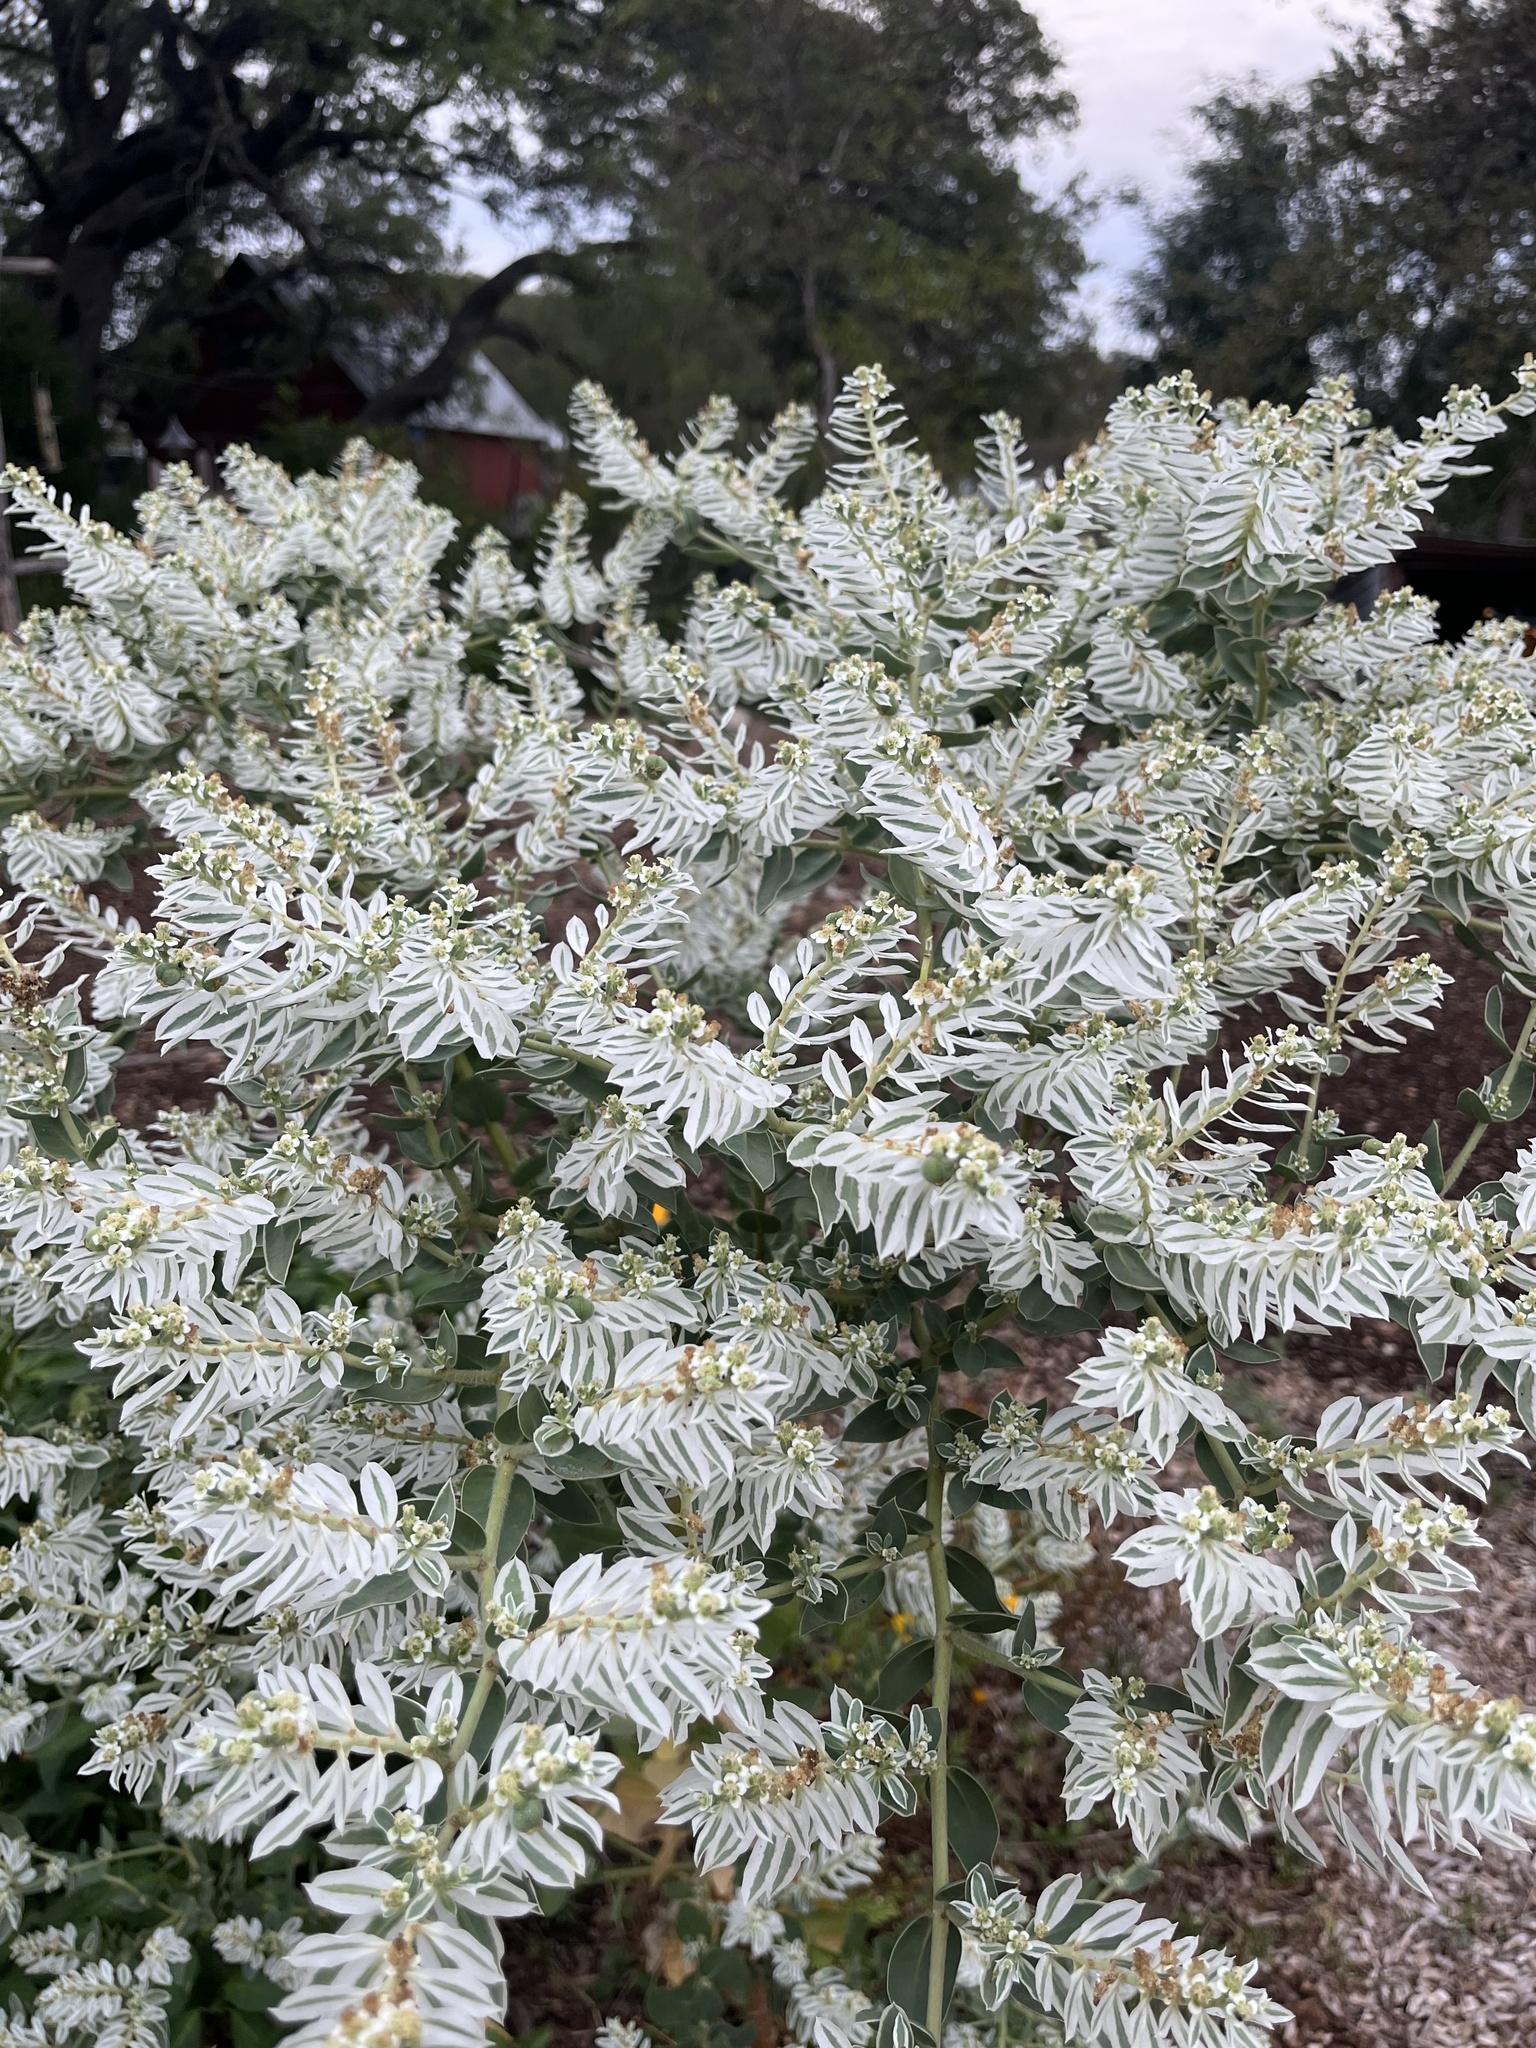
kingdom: Plantae
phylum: Tracheophyta
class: Magnoliopsida
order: Malpighiales
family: Euphorbiaceae
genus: Euphorbia
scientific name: Euphorbia marginata
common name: Ghostweed
